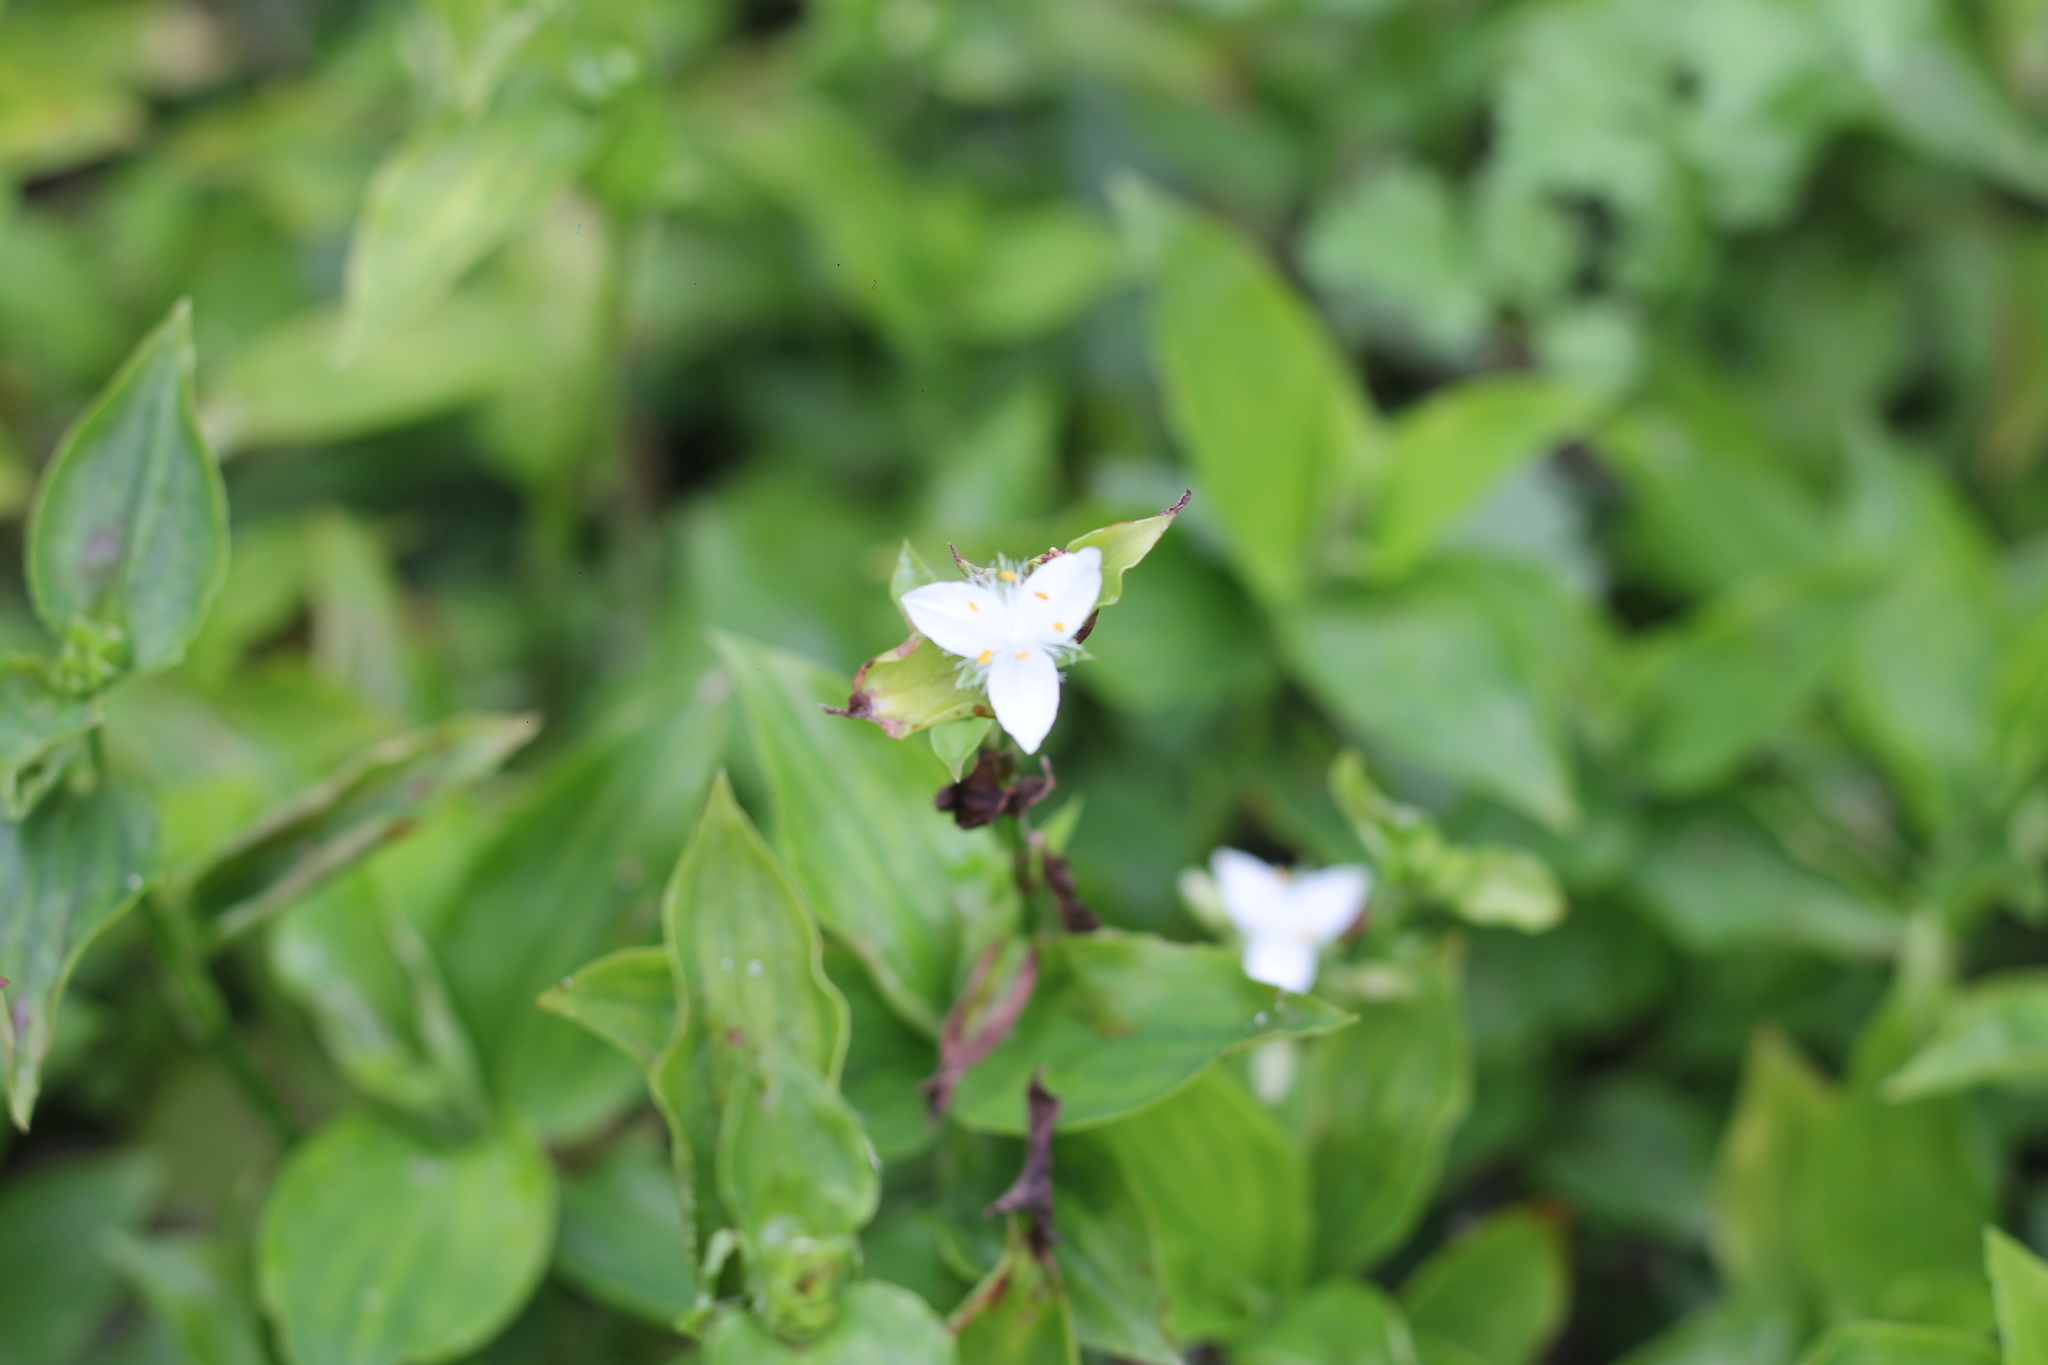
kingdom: Plantae
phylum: Tracheophyta
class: Liliopsida
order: Commelinales
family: Commelinaceae
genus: Tradescantia
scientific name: Tradescantia fluminensis
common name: Wandering-jew
